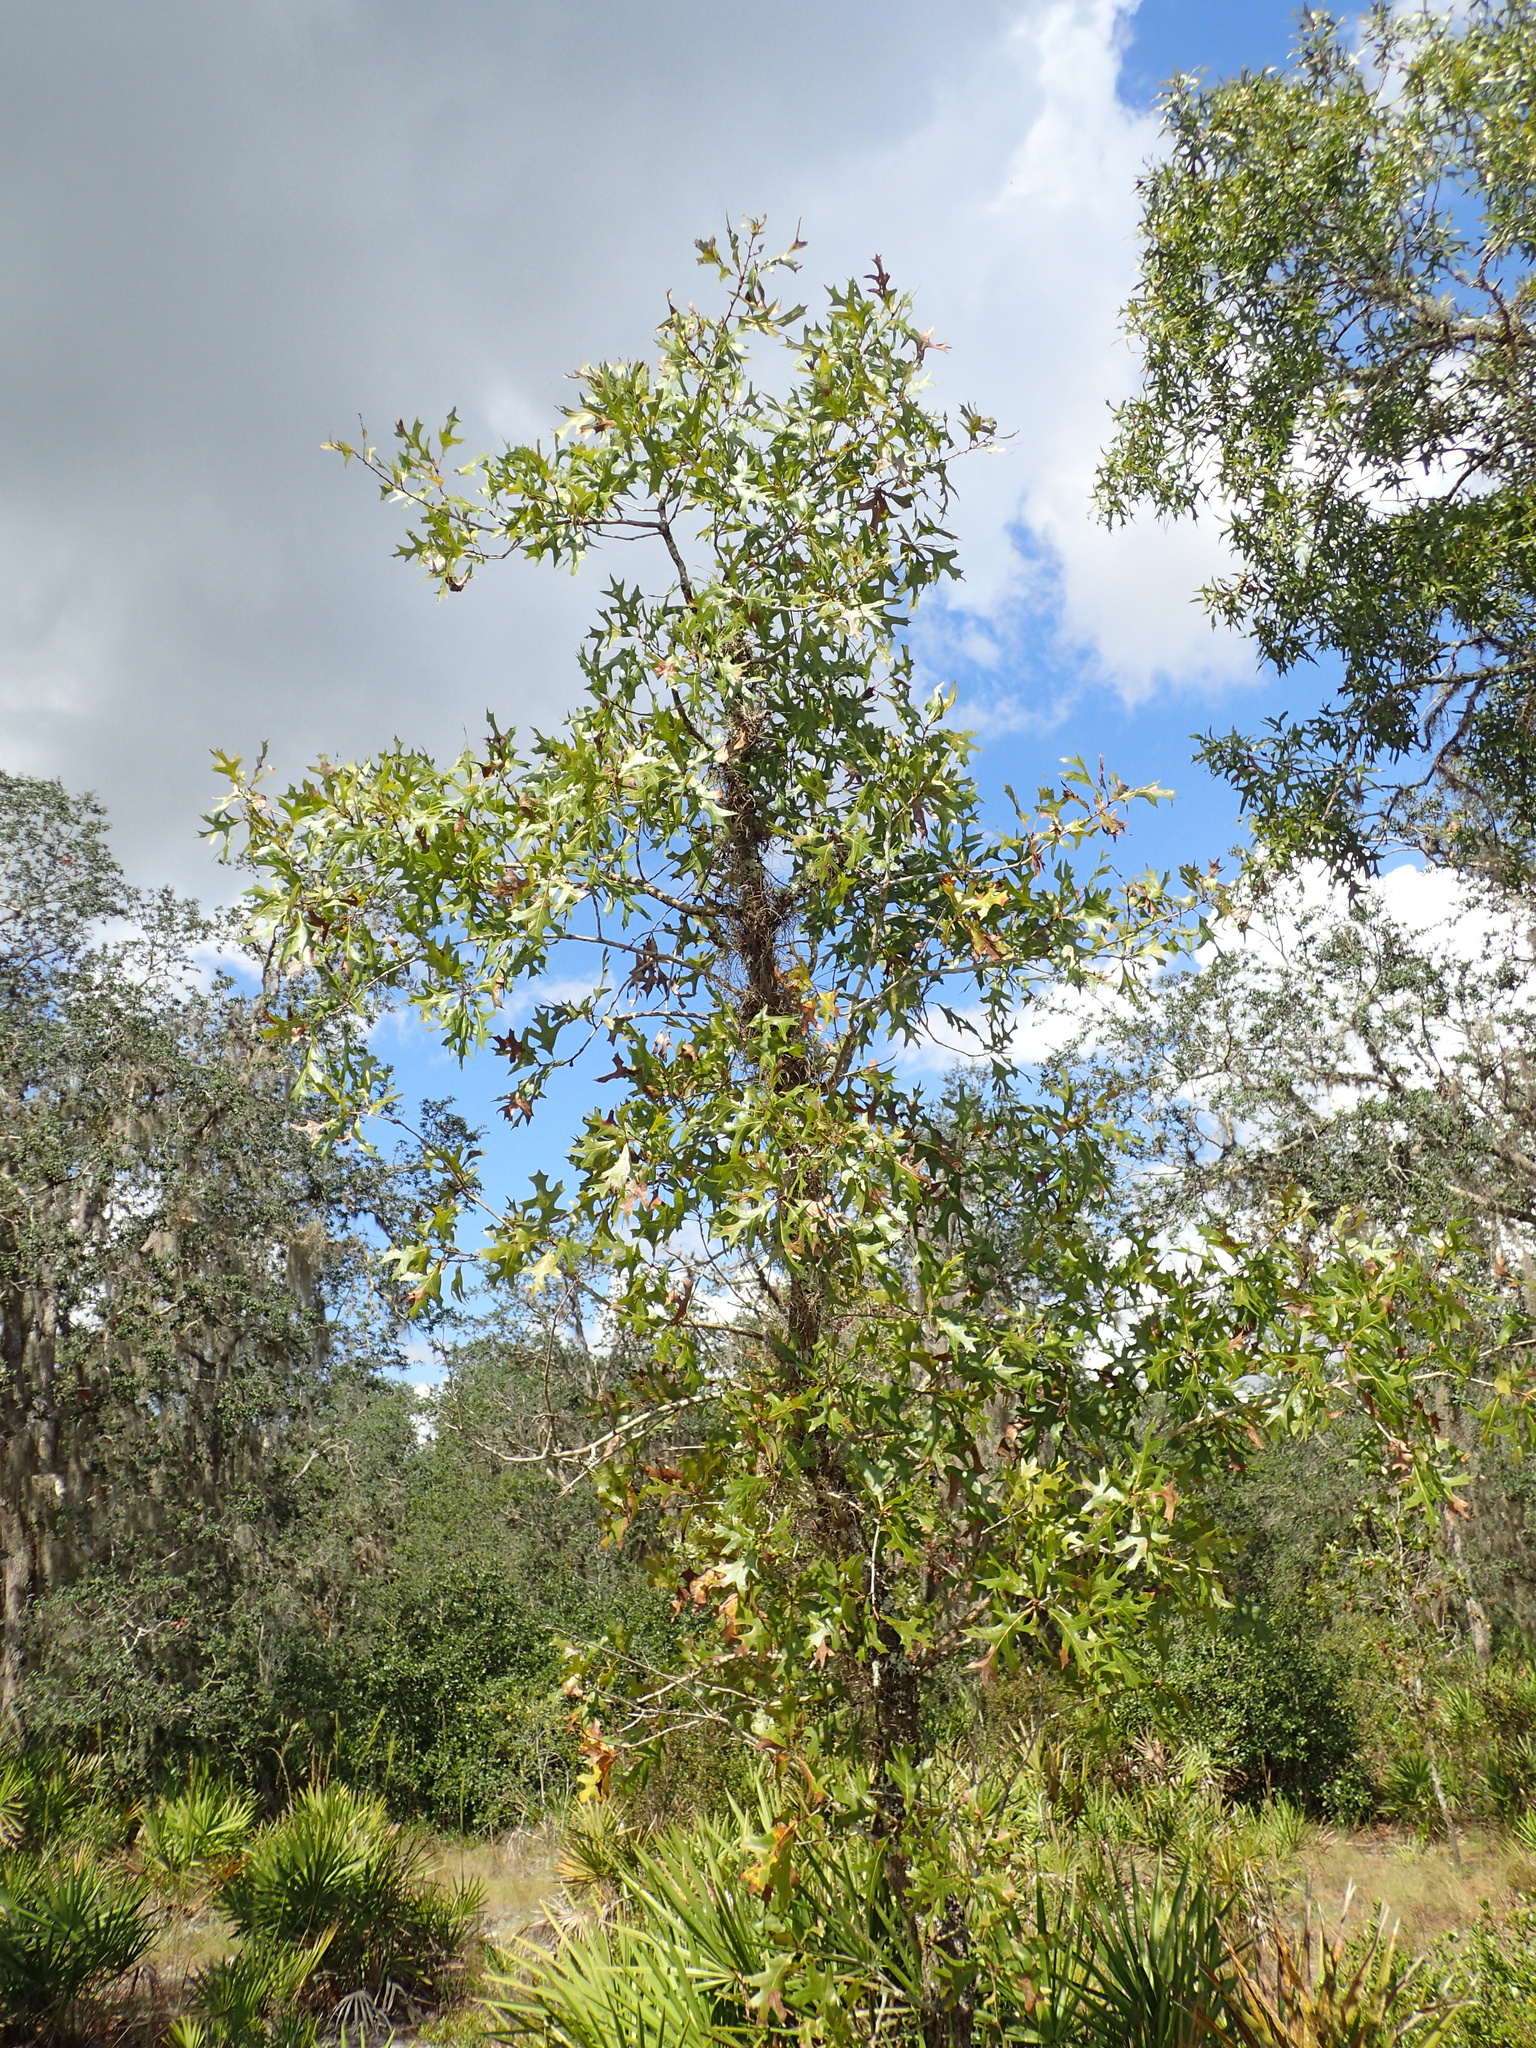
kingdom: Plantae
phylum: Tracheophyta
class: Magnoliopsida
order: Fagales
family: Fagaceae
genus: Quercus
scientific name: Quercus laevis
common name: Turkey oak
